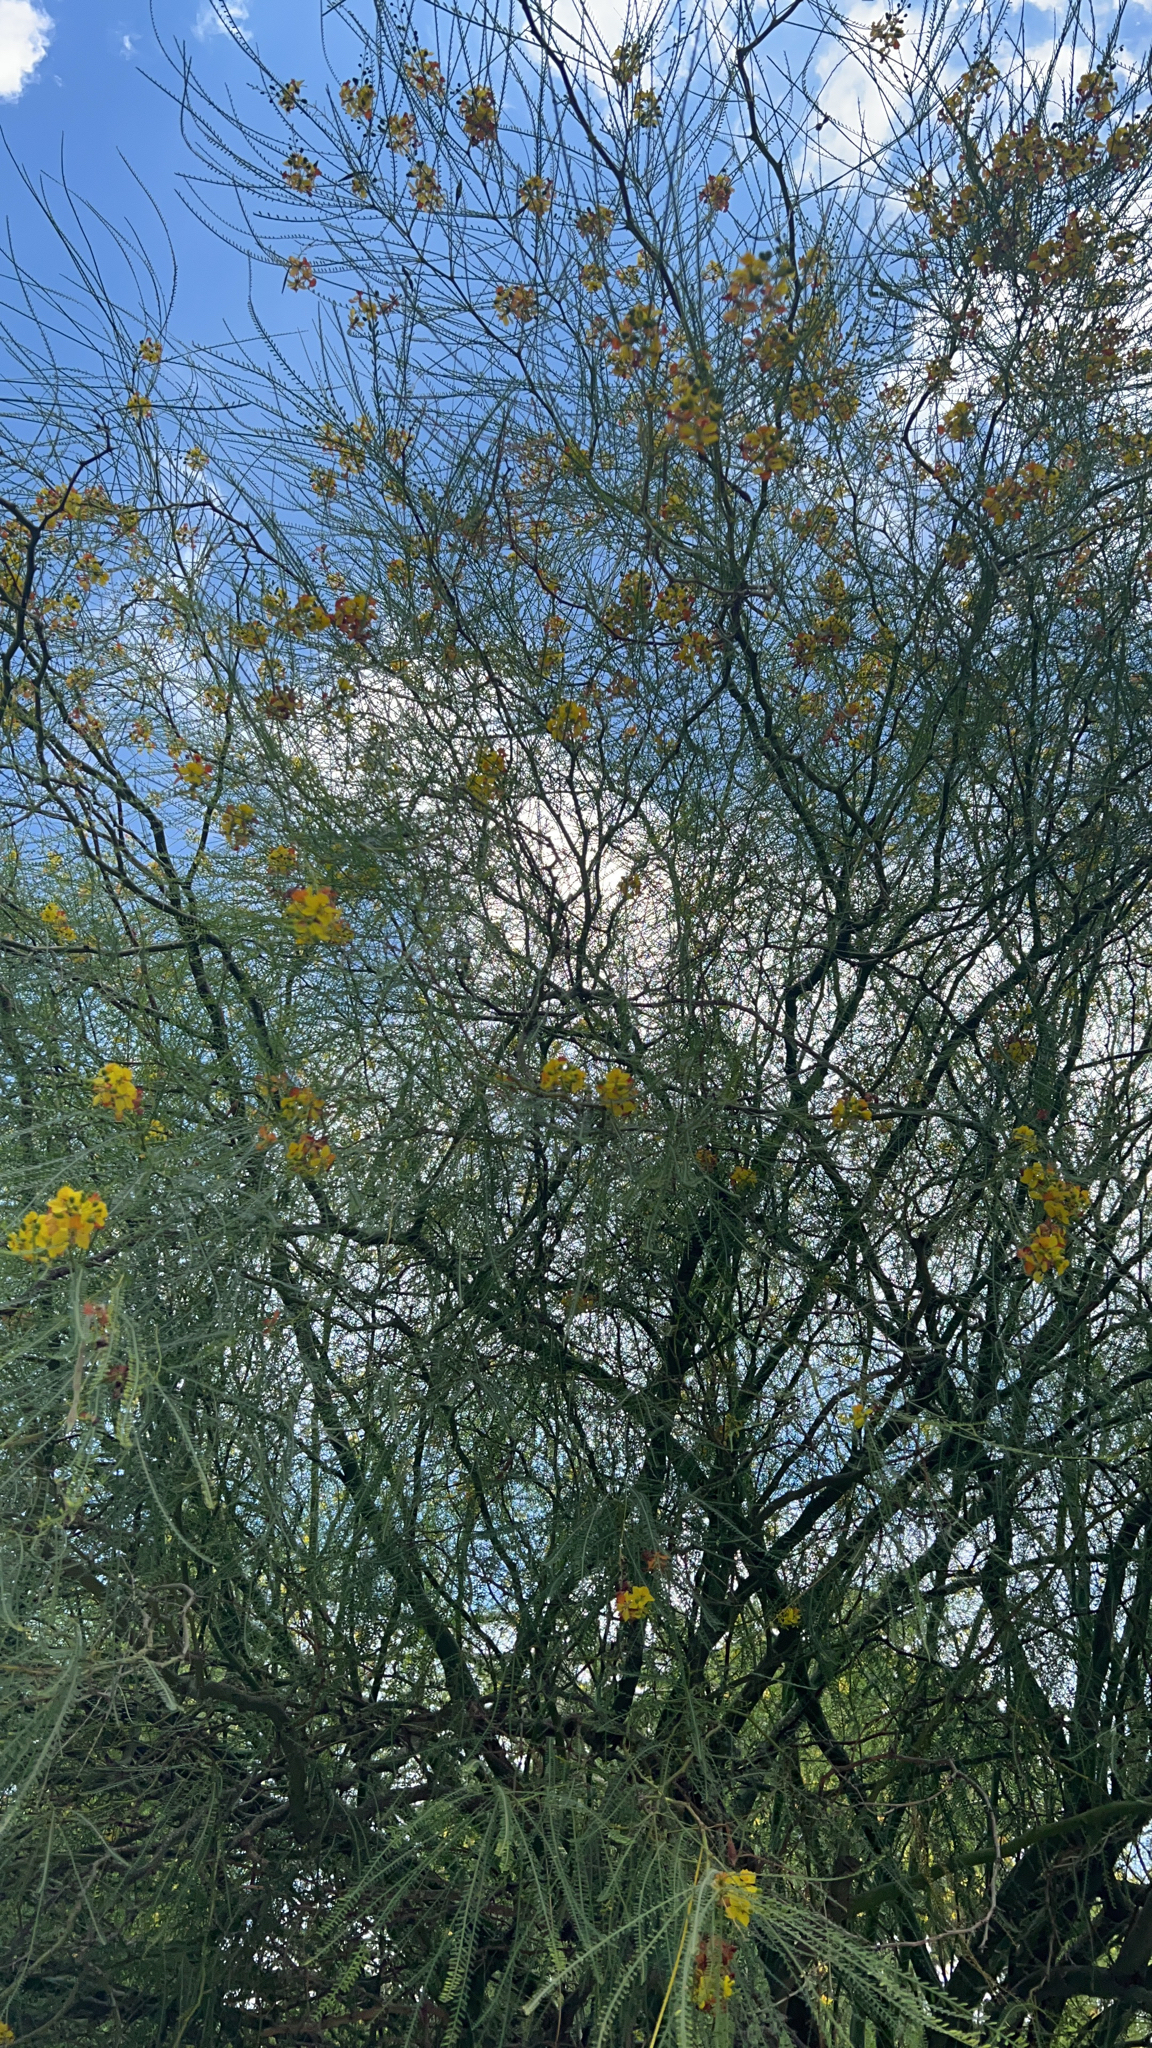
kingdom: Plantae
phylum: Tracheophyta
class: Magnoliopsida
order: Fabales
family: Fabaceae
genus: Parkinsonia
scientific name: Parkinsonia aculeata
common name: Jerusalem thorn
